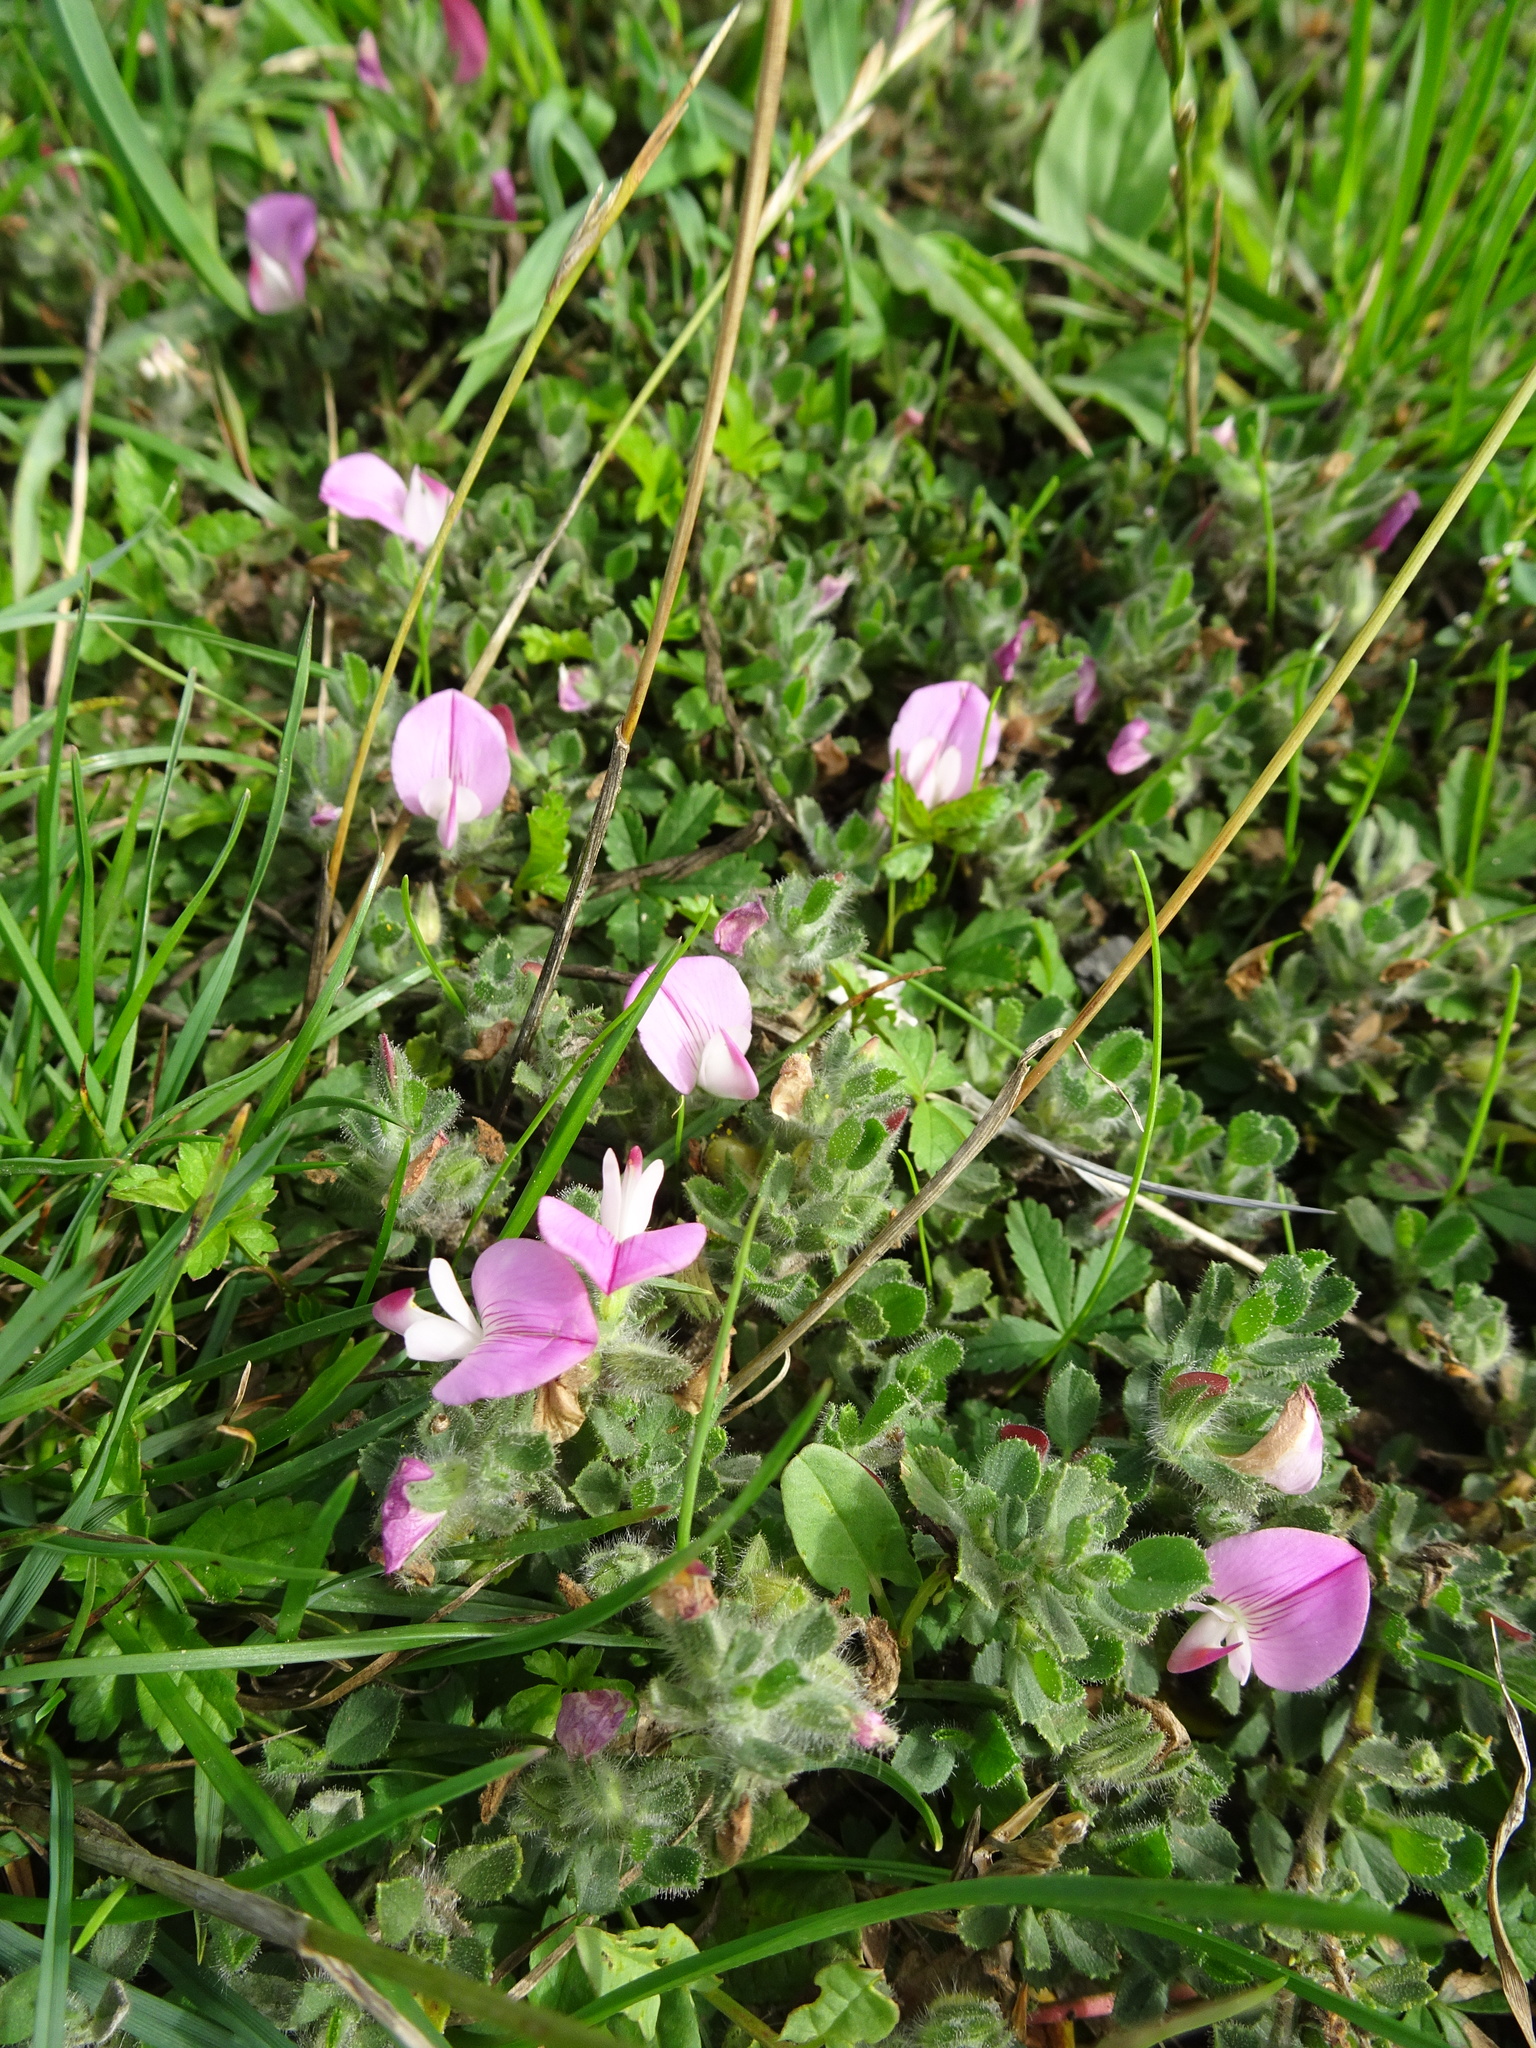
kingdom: Plantae
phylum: Tracheophyta
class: Magnoliopsida
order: Fabales
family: Fabaceae
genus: Ononis
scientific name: Ononis spinosa
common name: Spiny restharrow
